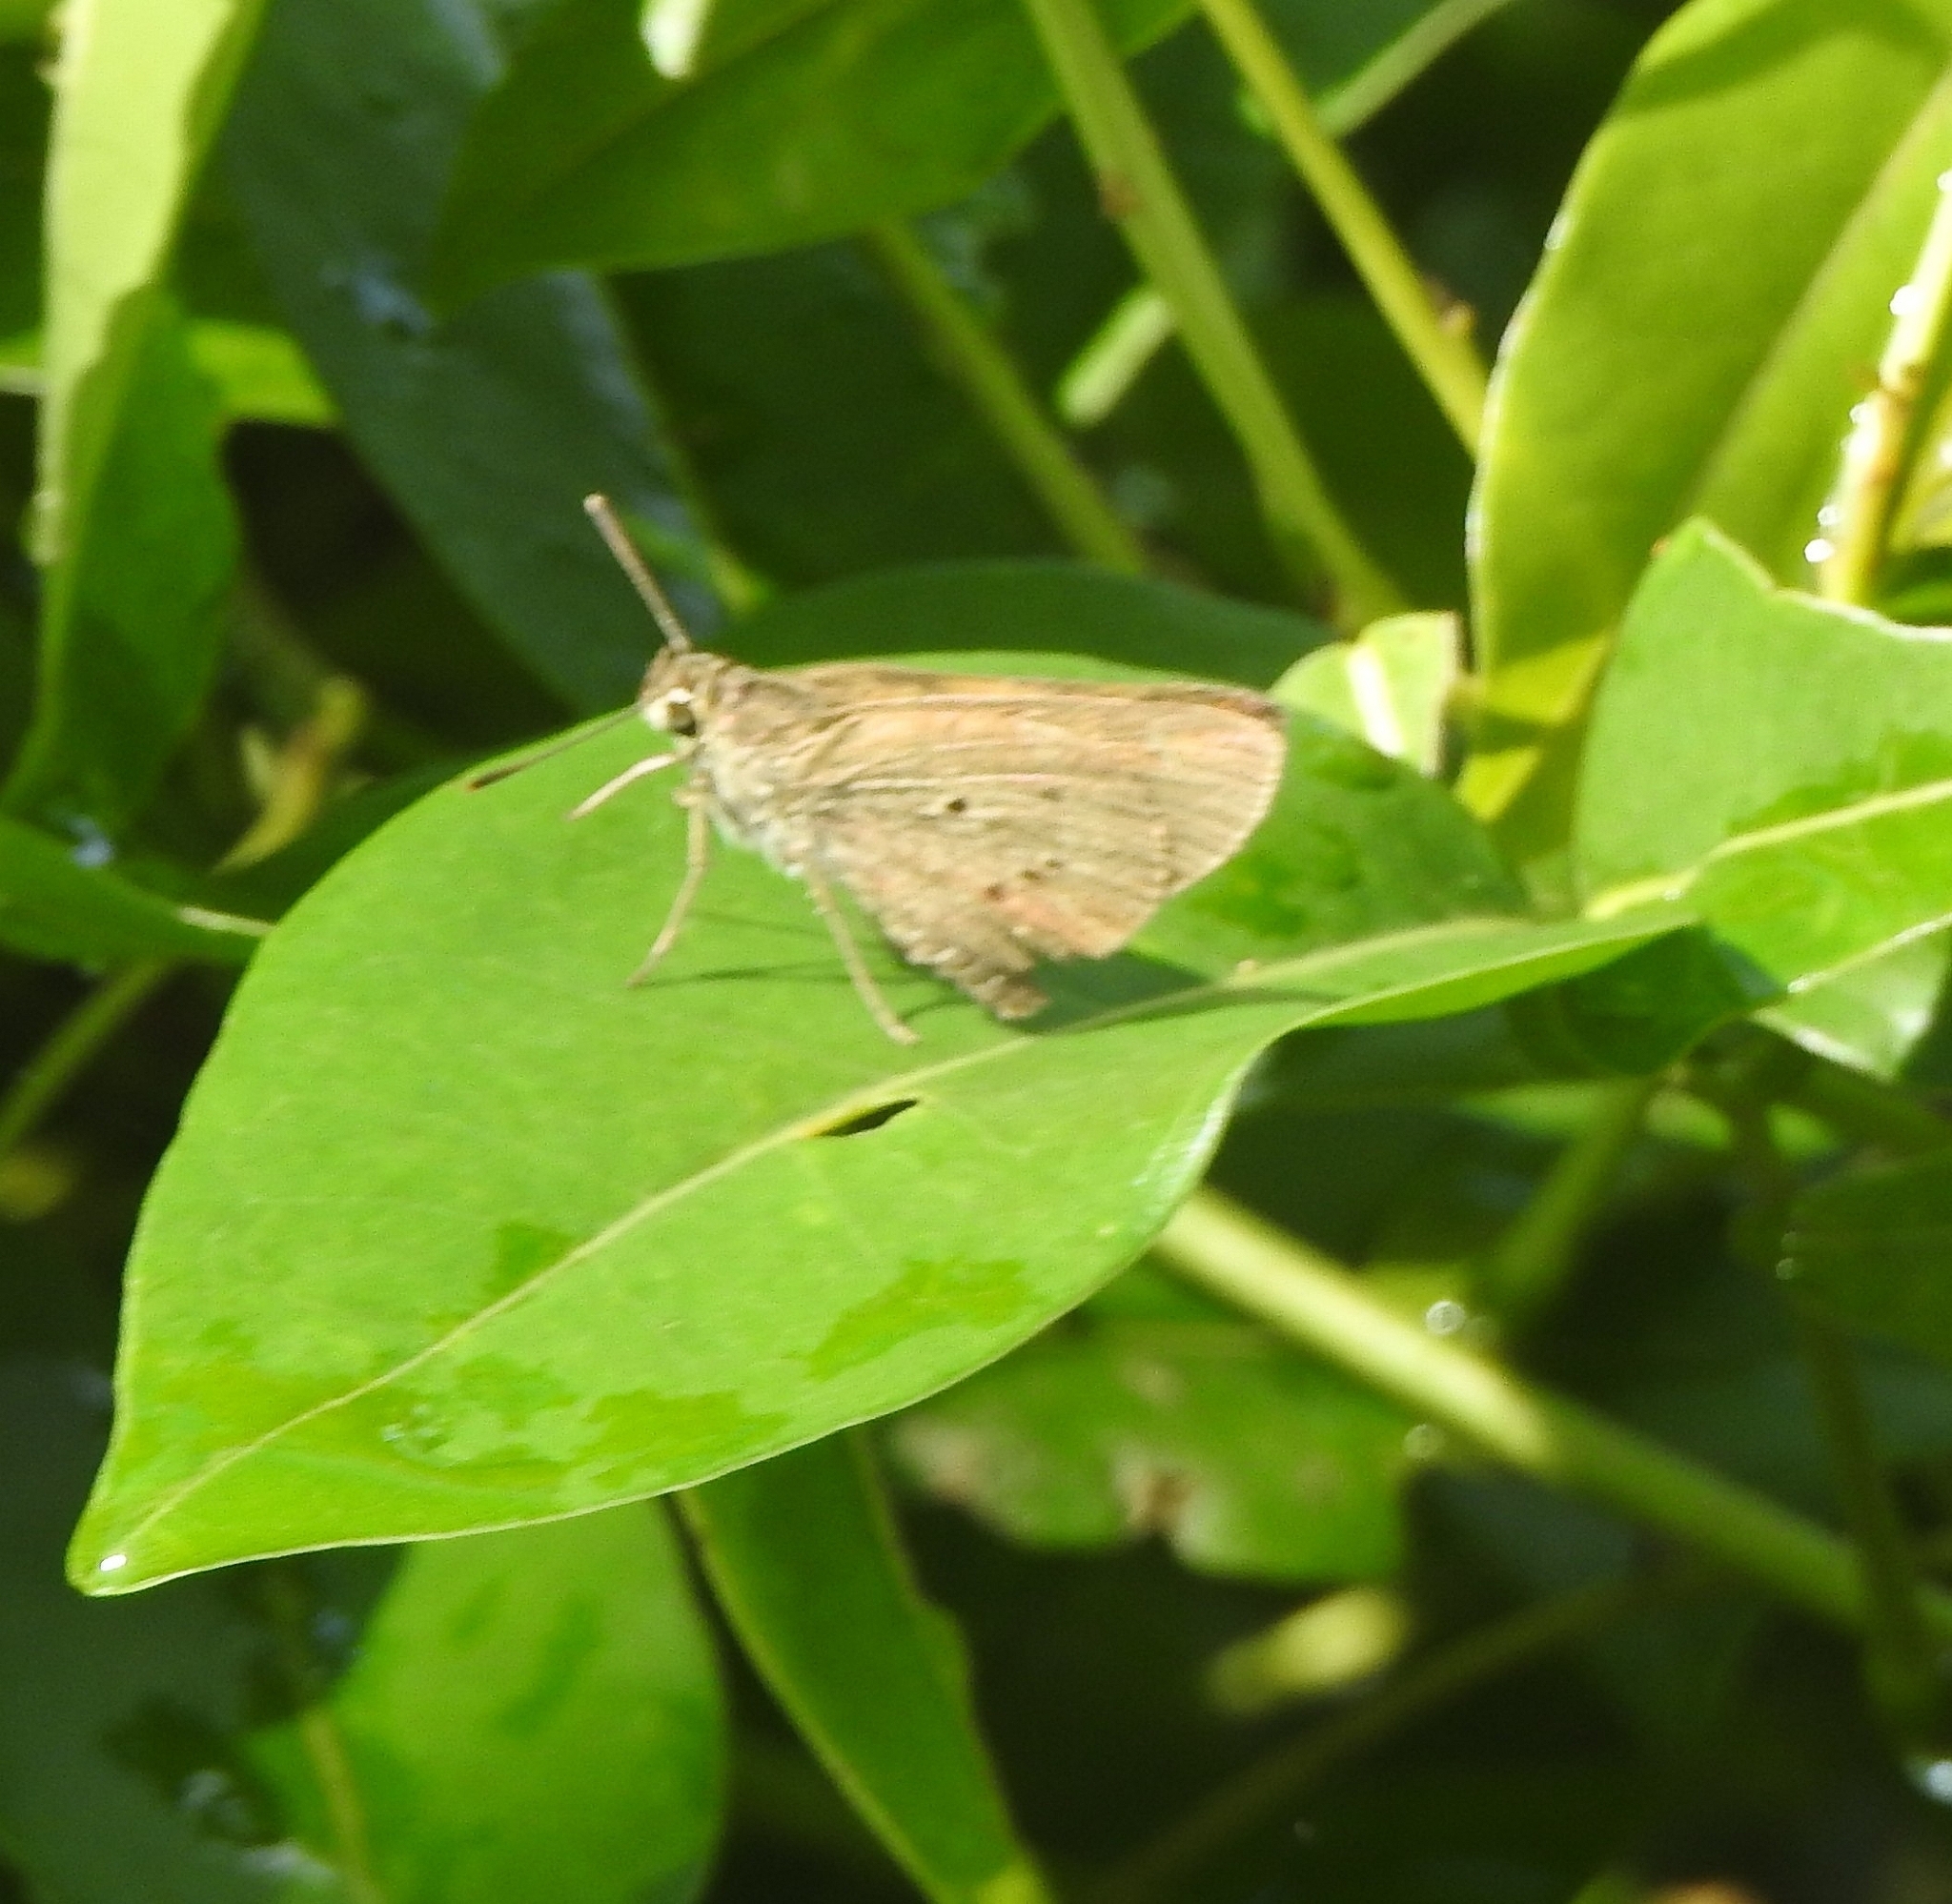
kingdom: Animalia
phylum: Arthropoda
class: Insecta
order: Lepidoptera
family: Hesperiidae
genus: Suastus
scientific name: Suastus gremius
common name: Indian palm bob
